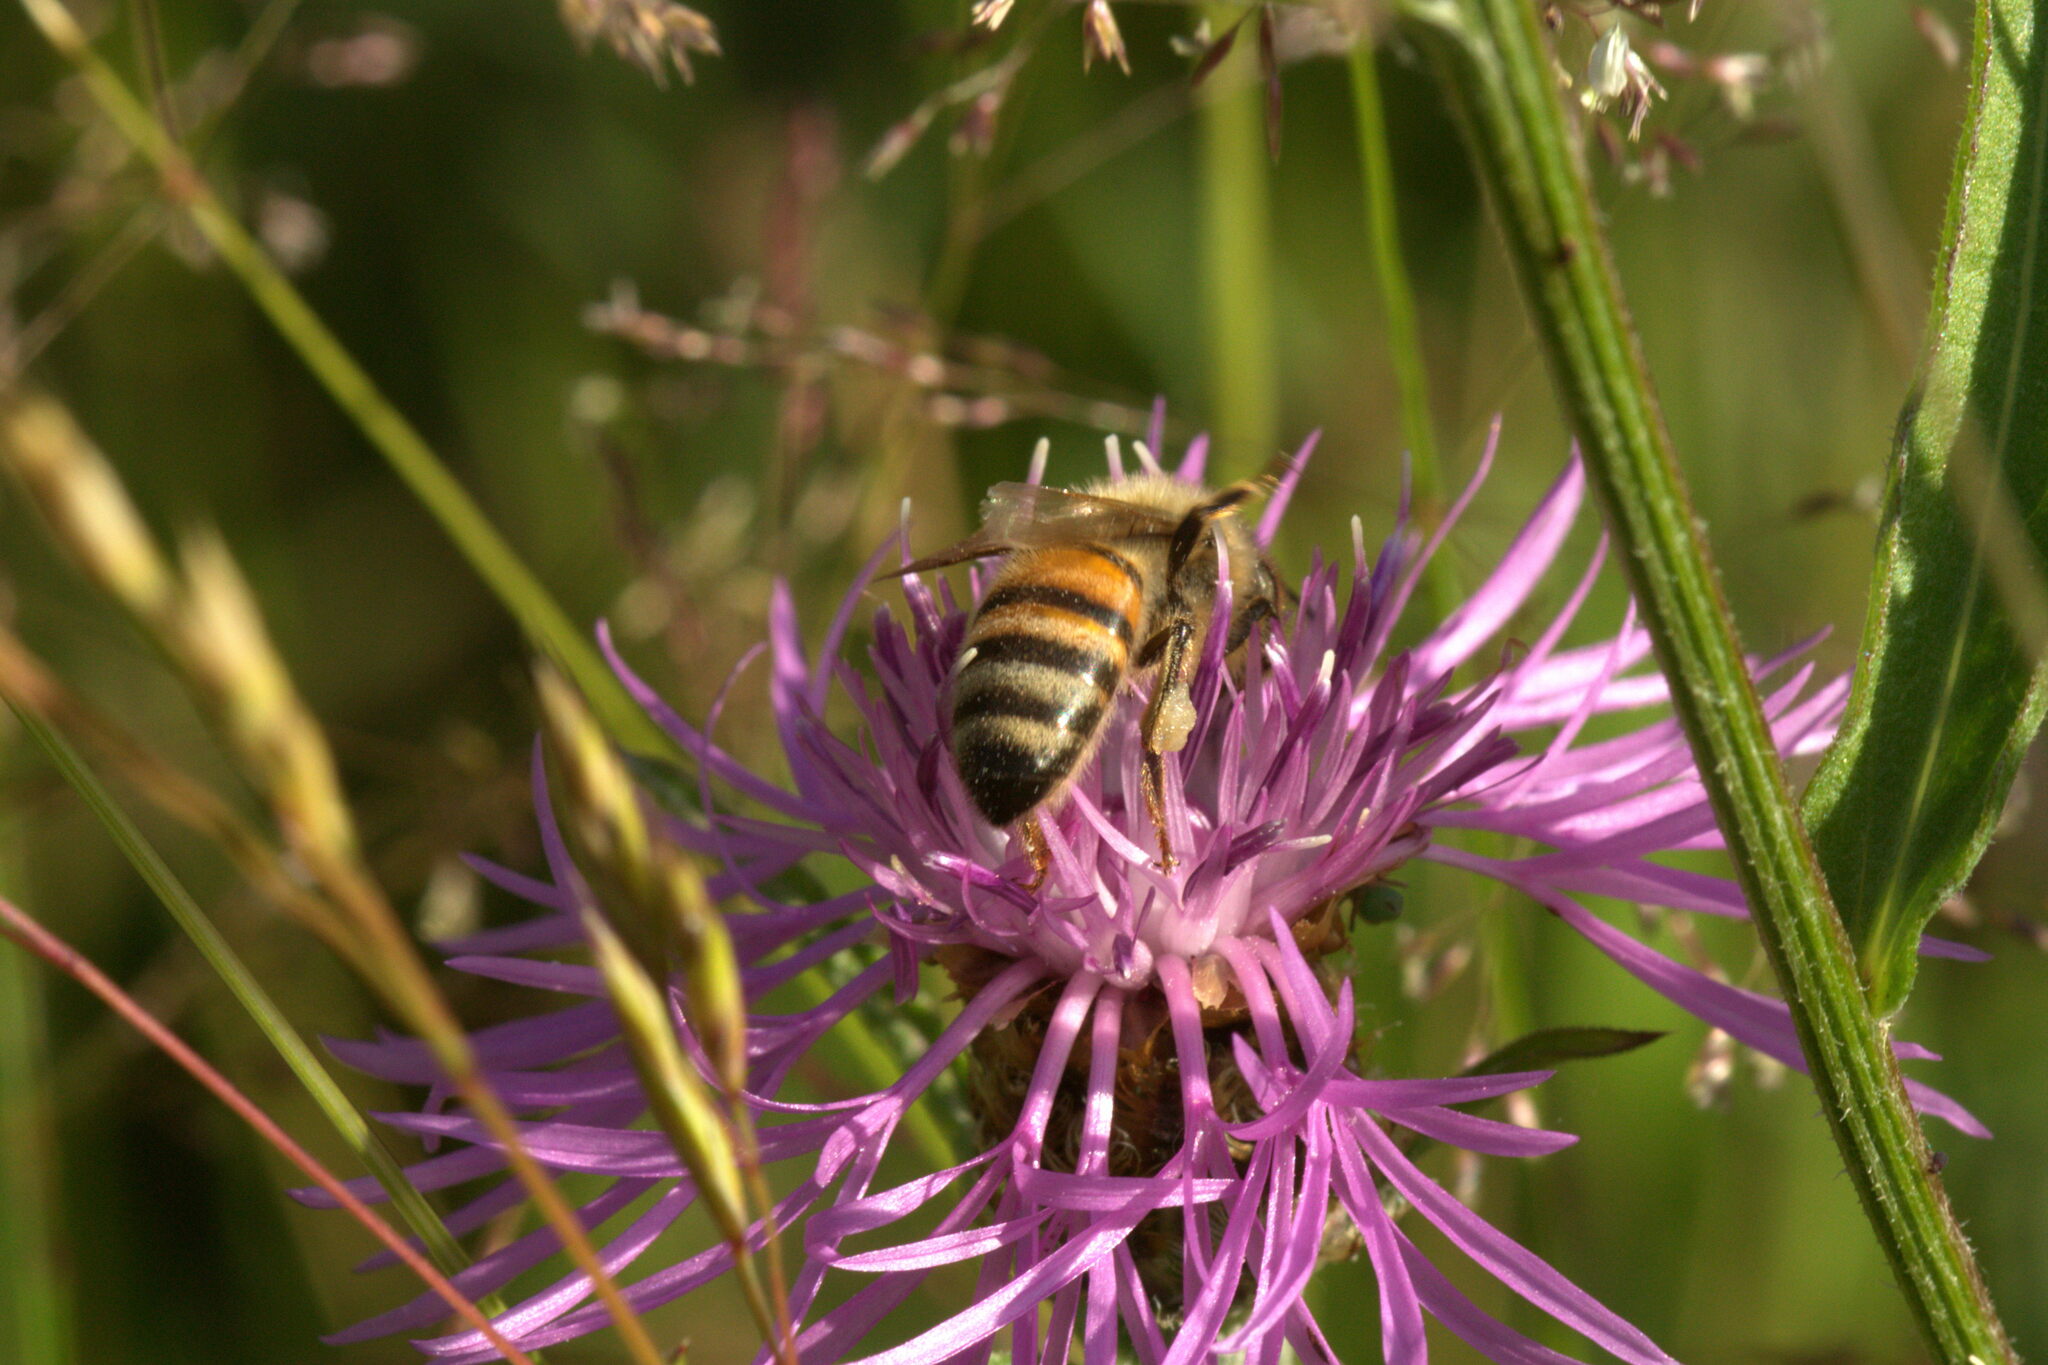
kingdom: Animalia
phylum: Arthropoda
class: Insecta
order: Hymenoptera
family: Apidae
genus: Apis
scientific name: Apis mellifera
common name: Honey bee
